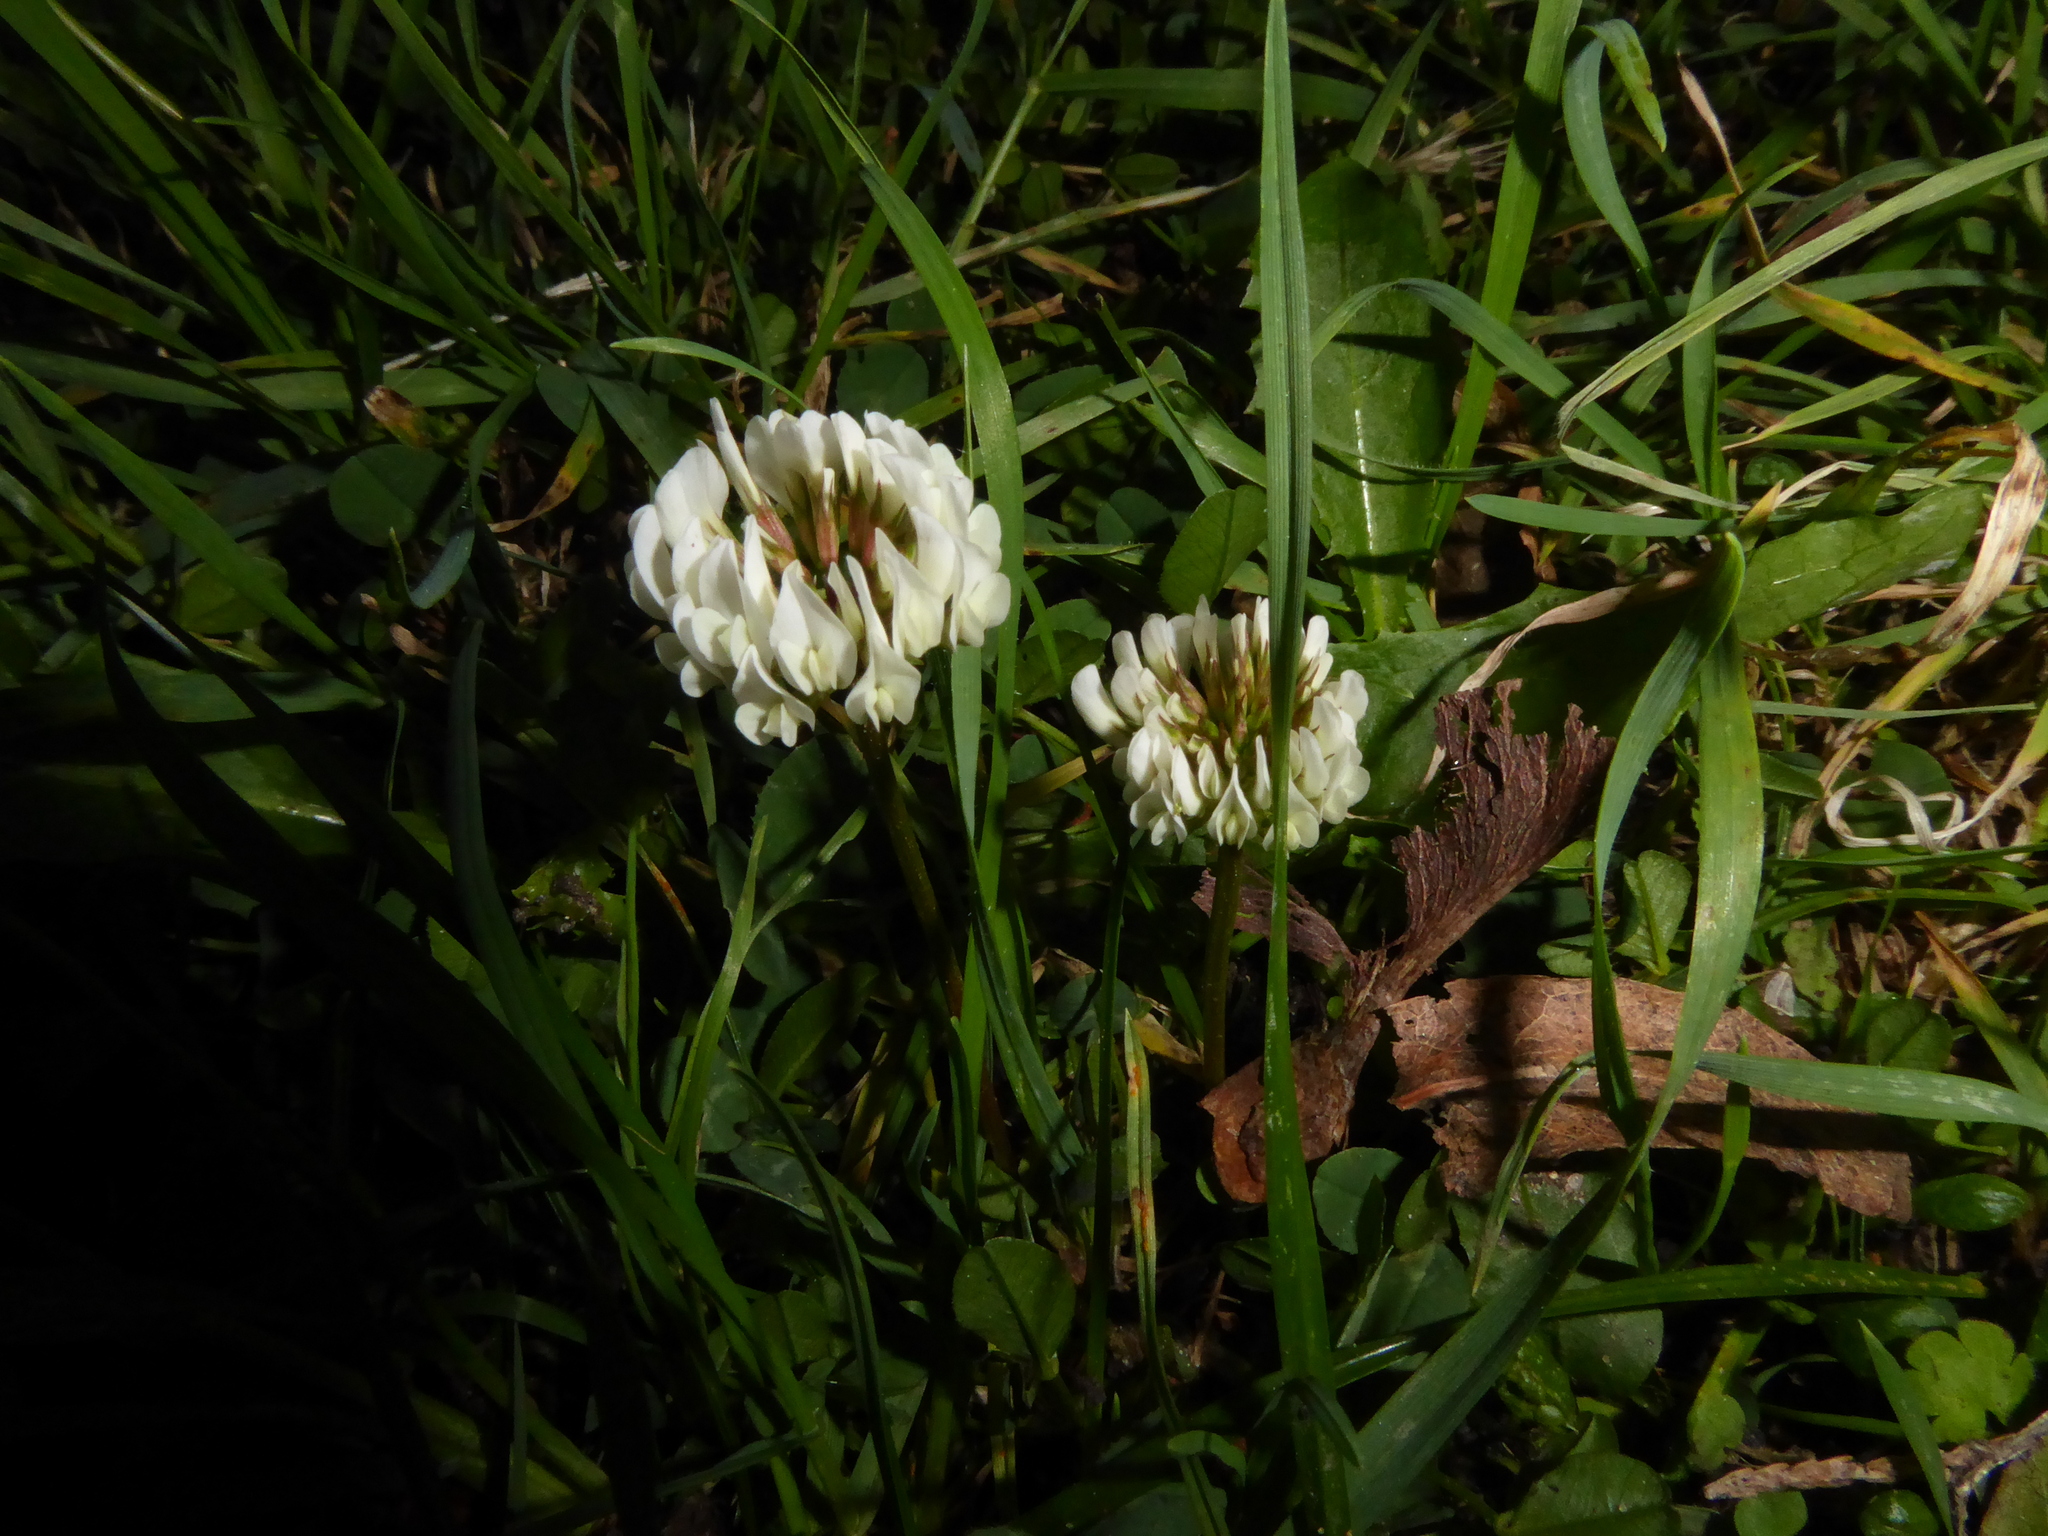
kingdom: Plantae
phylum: Tracheophyta
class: Magnoliopsida
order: Fabales
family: Fabaceae
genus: Trifolium
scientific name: Trifolium repens
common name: White clover
